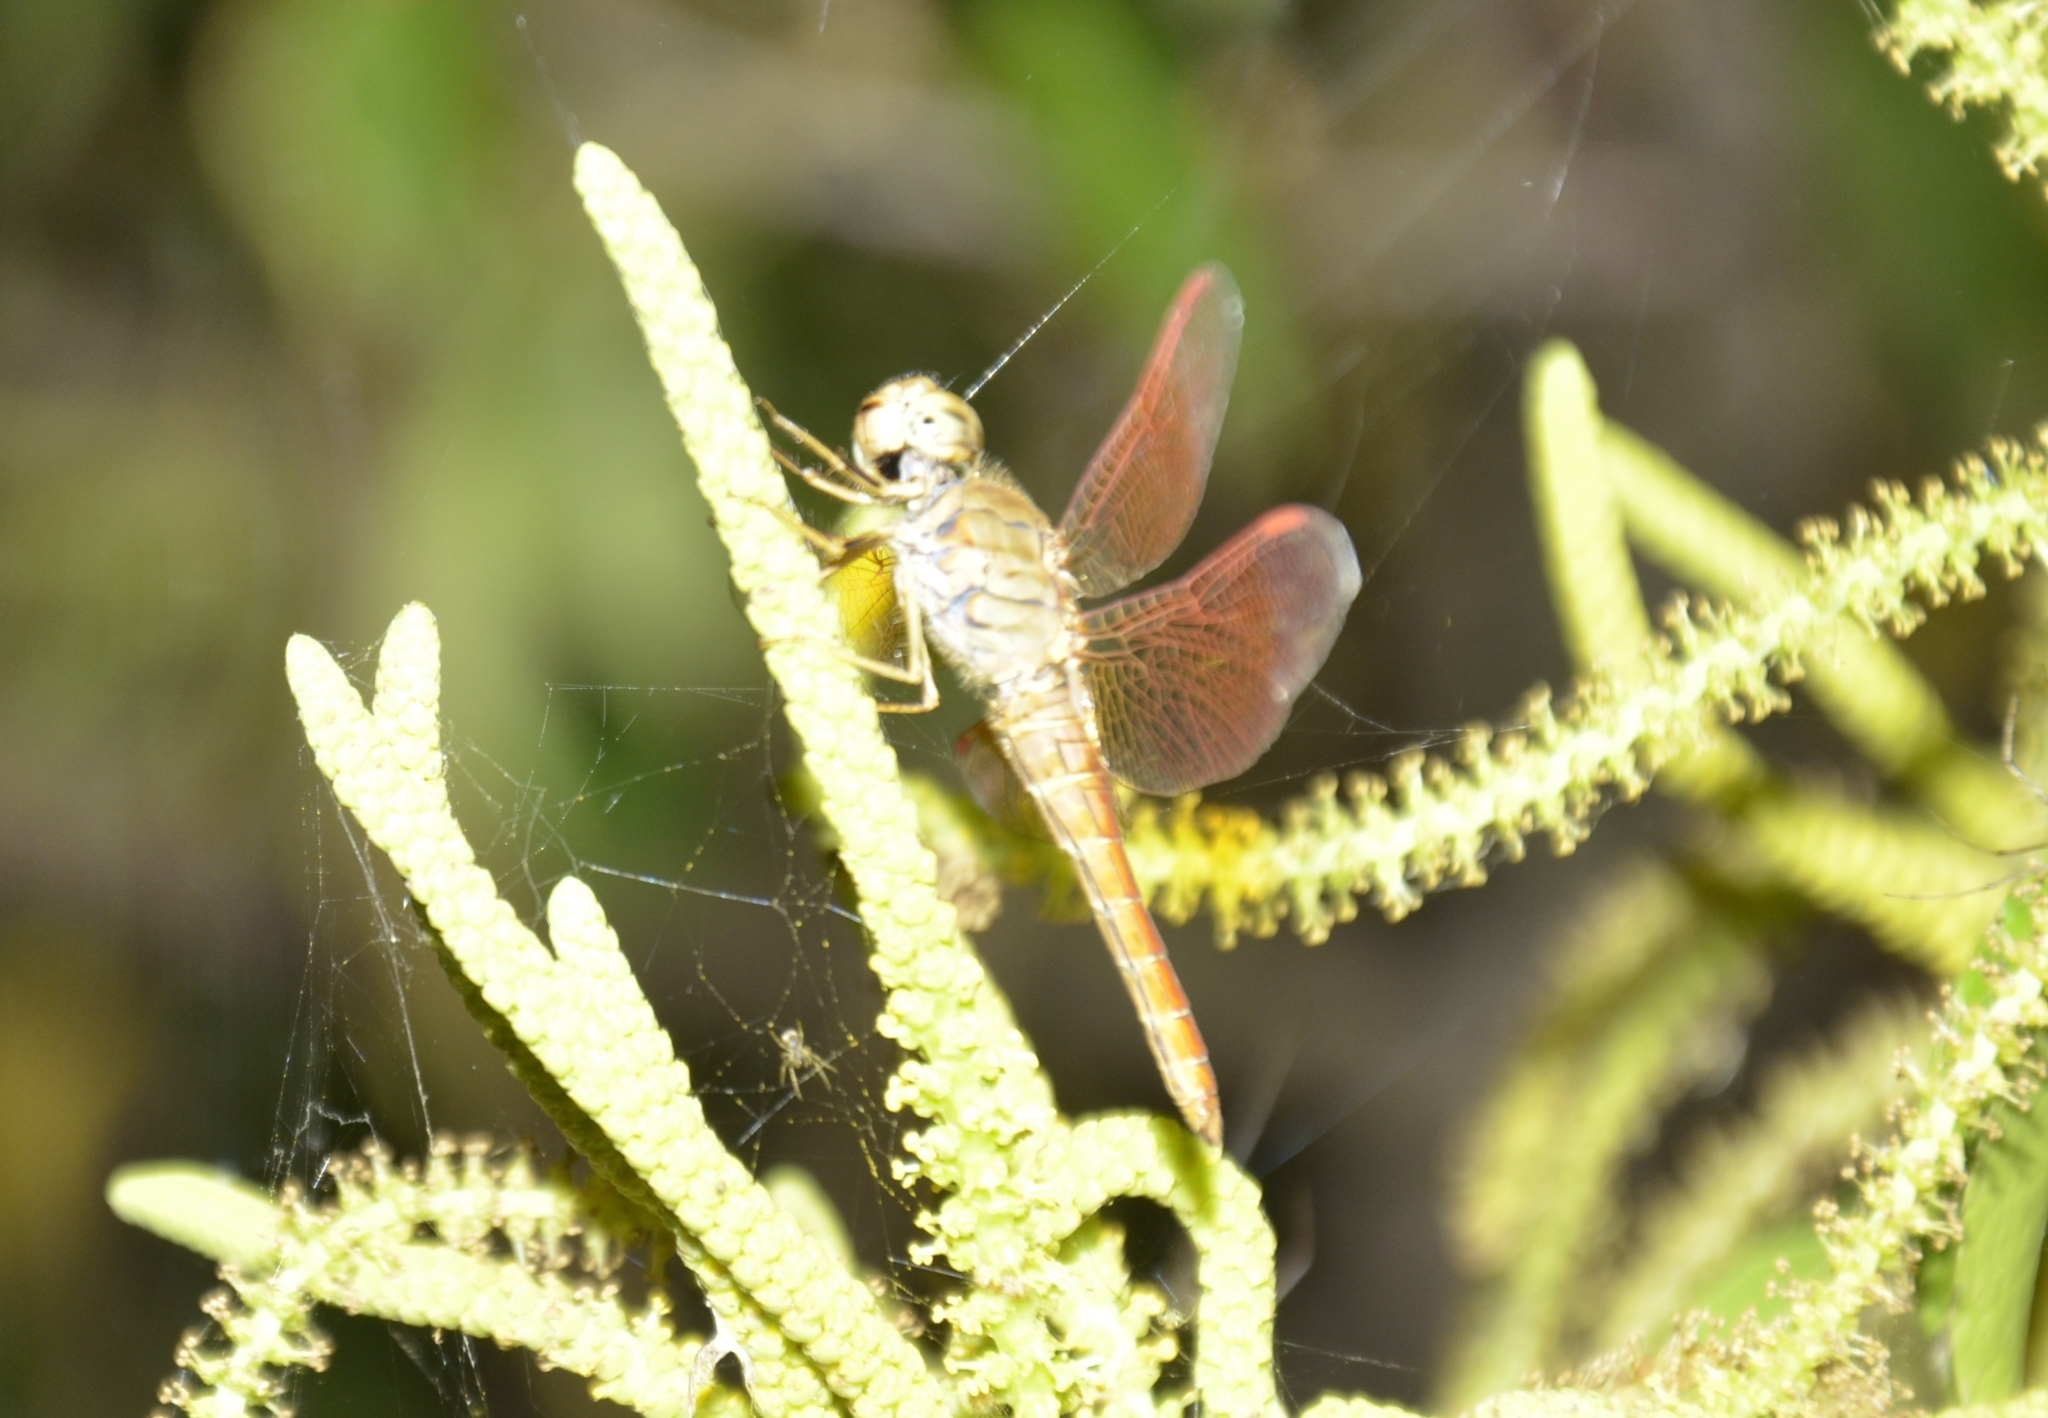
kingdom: Animalia
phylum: Arthropoda
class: Insecta
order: Odonata
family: Libellulidae
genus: Brachythemis
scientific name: Brachythemis contaminata
